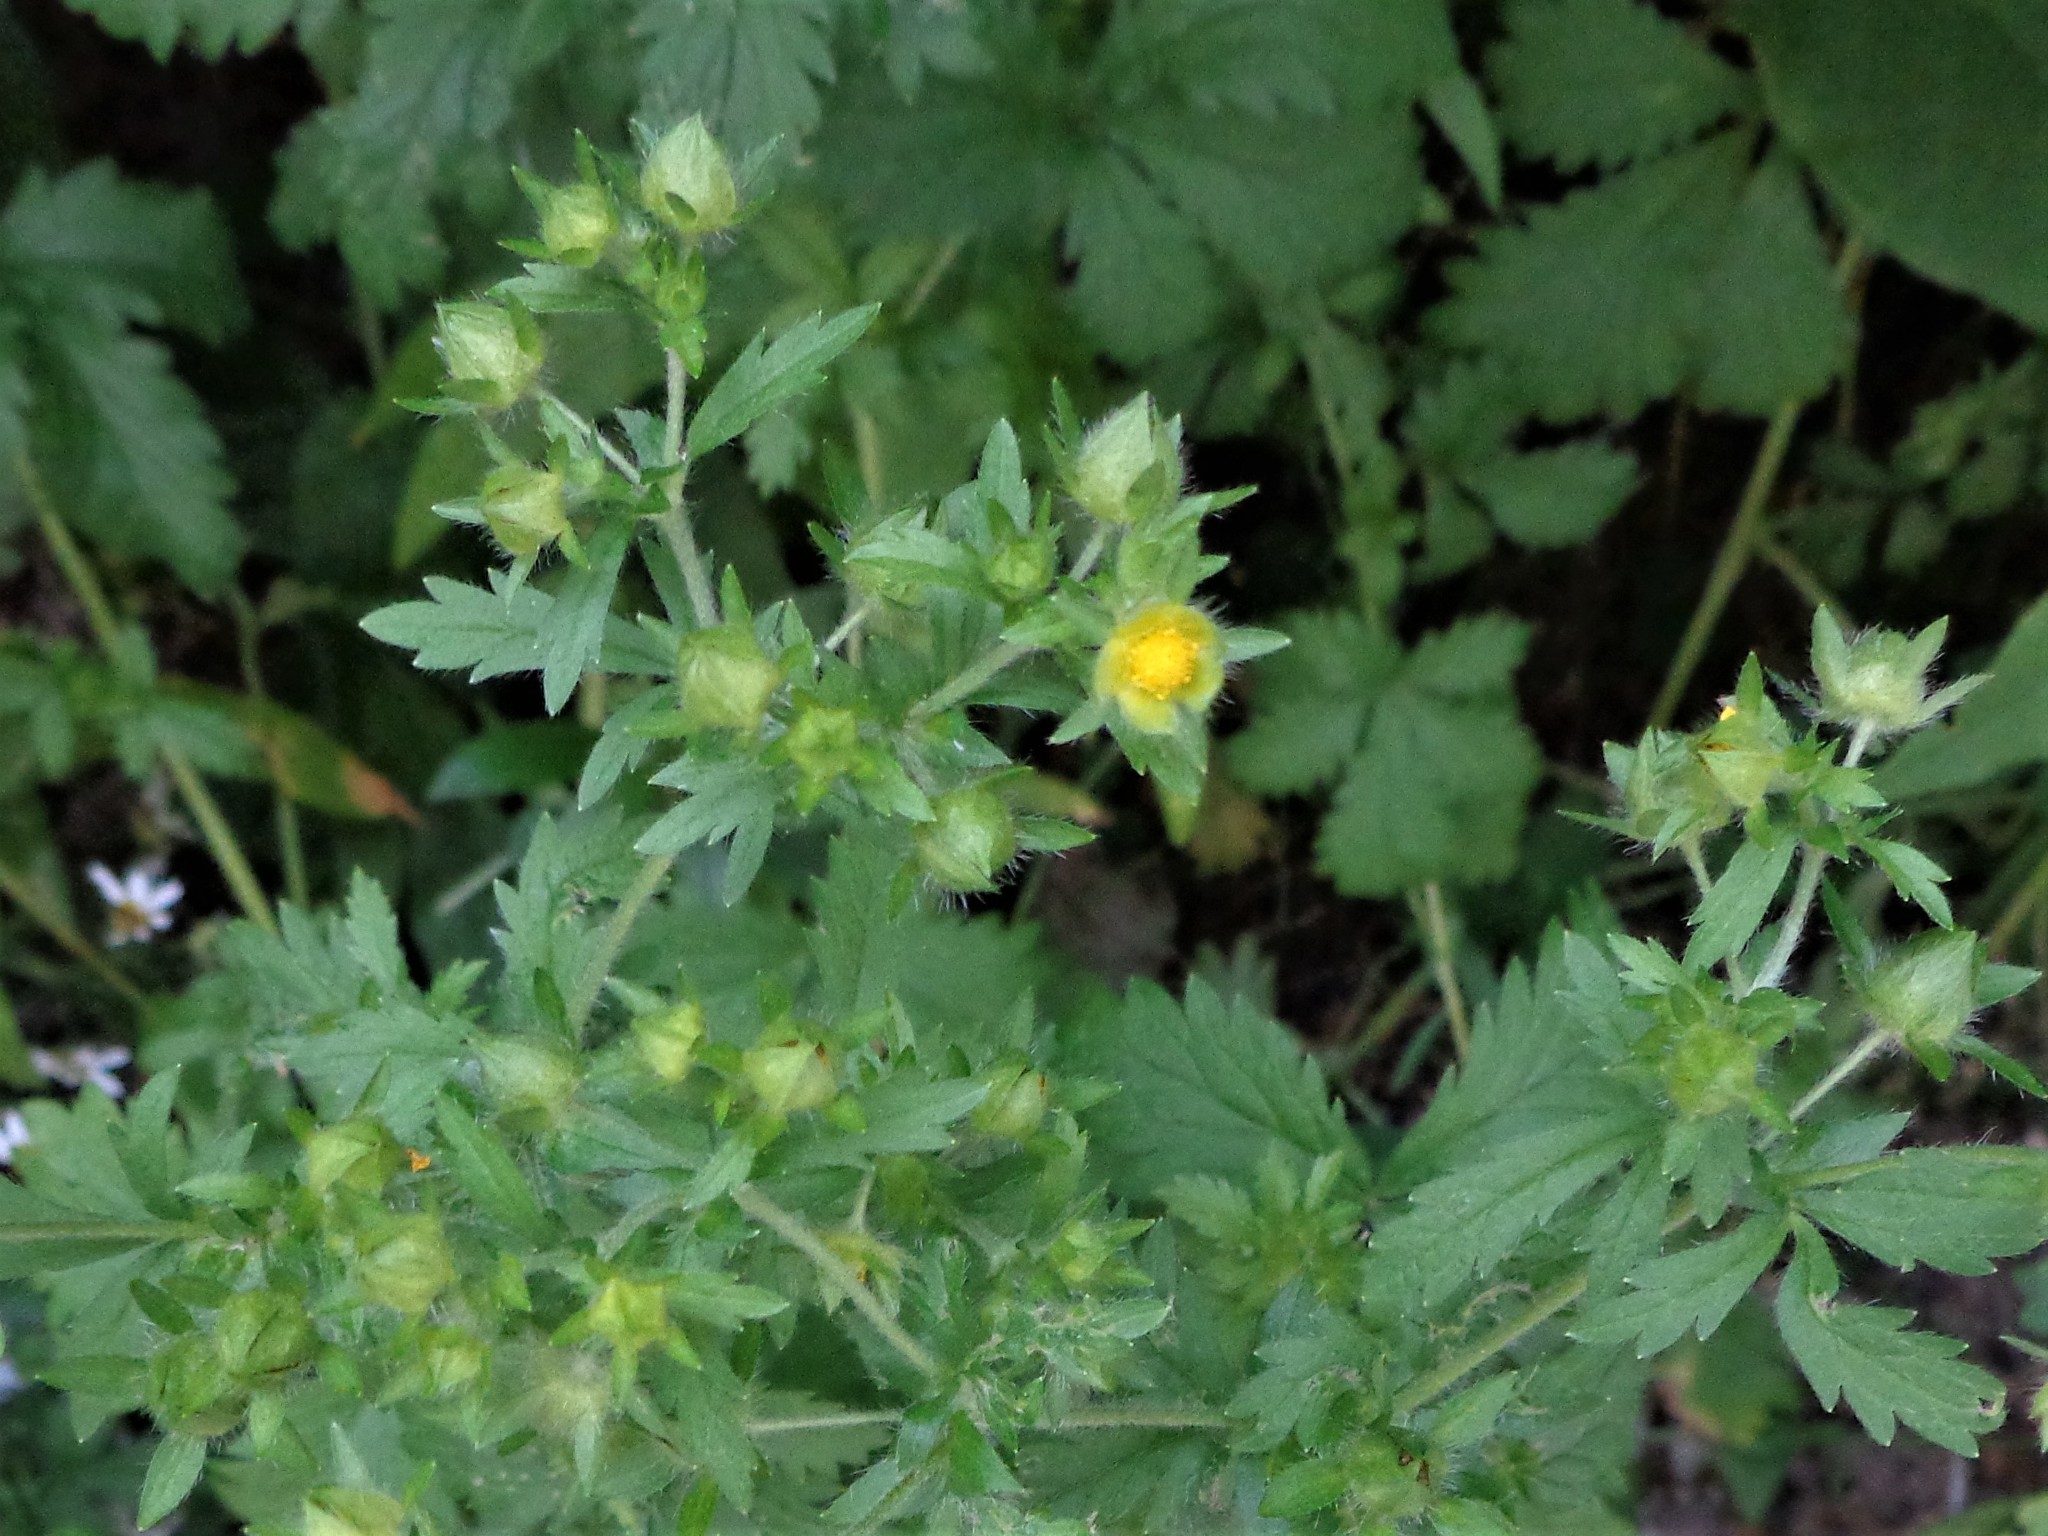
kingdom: Plantae
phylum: Tracheophyta
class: Magnoliopsida
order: Rosales
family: Rosaceae
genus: Potentilla
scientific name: Potentilla norvegica
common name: Ternate-leaved cinquefoil
